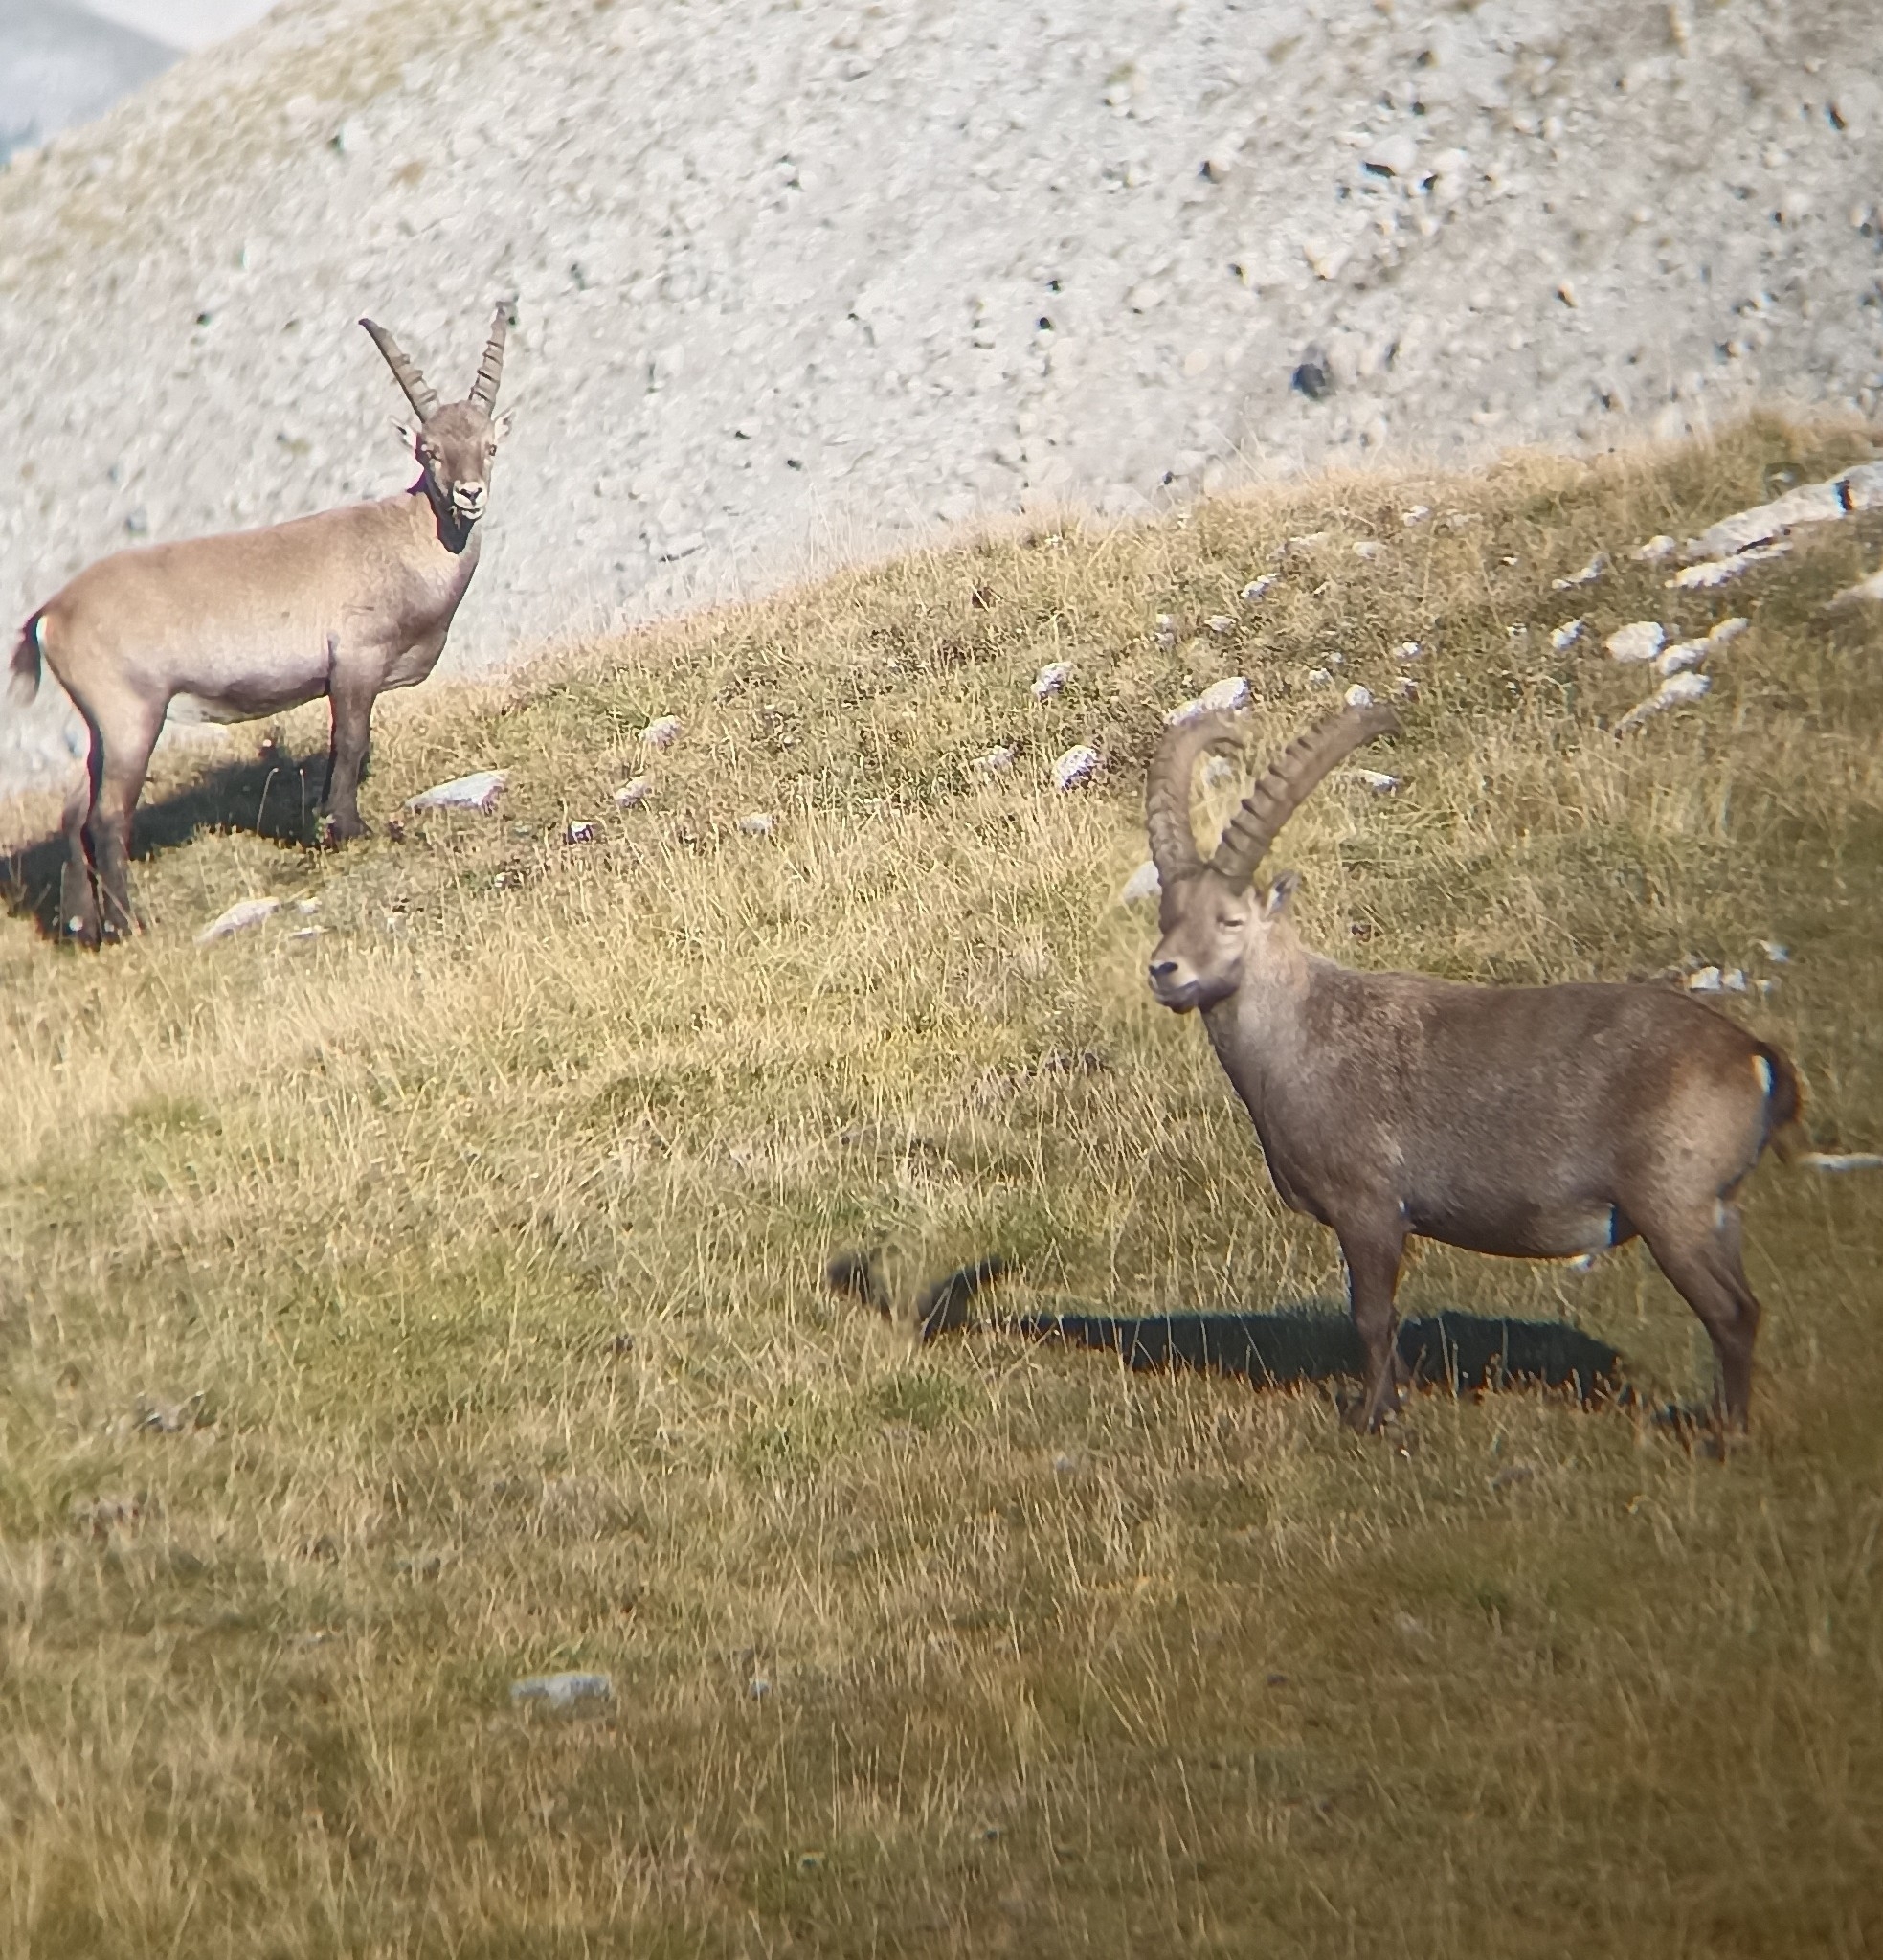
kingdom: Animalia
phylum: Chordata
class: Mammalia
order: Artiodactyla
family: Bovidae
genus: Capra
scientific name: Capra ibex
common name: Alpine ibex
